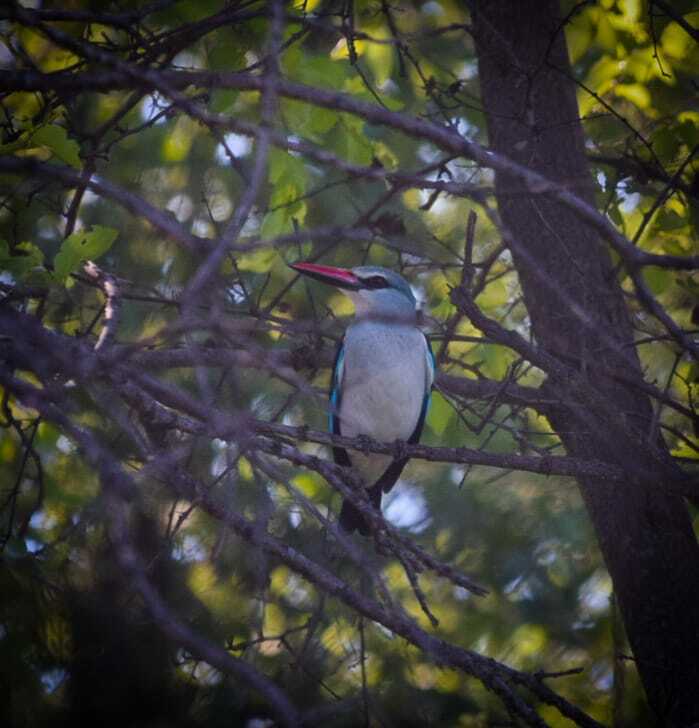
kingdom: Animalia
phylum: Chordata
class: Aves
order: Coraciiformes
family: Alcedinidae
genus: Halcyon
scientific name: Halcyon senegalensis
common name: Woodland kingfisher
